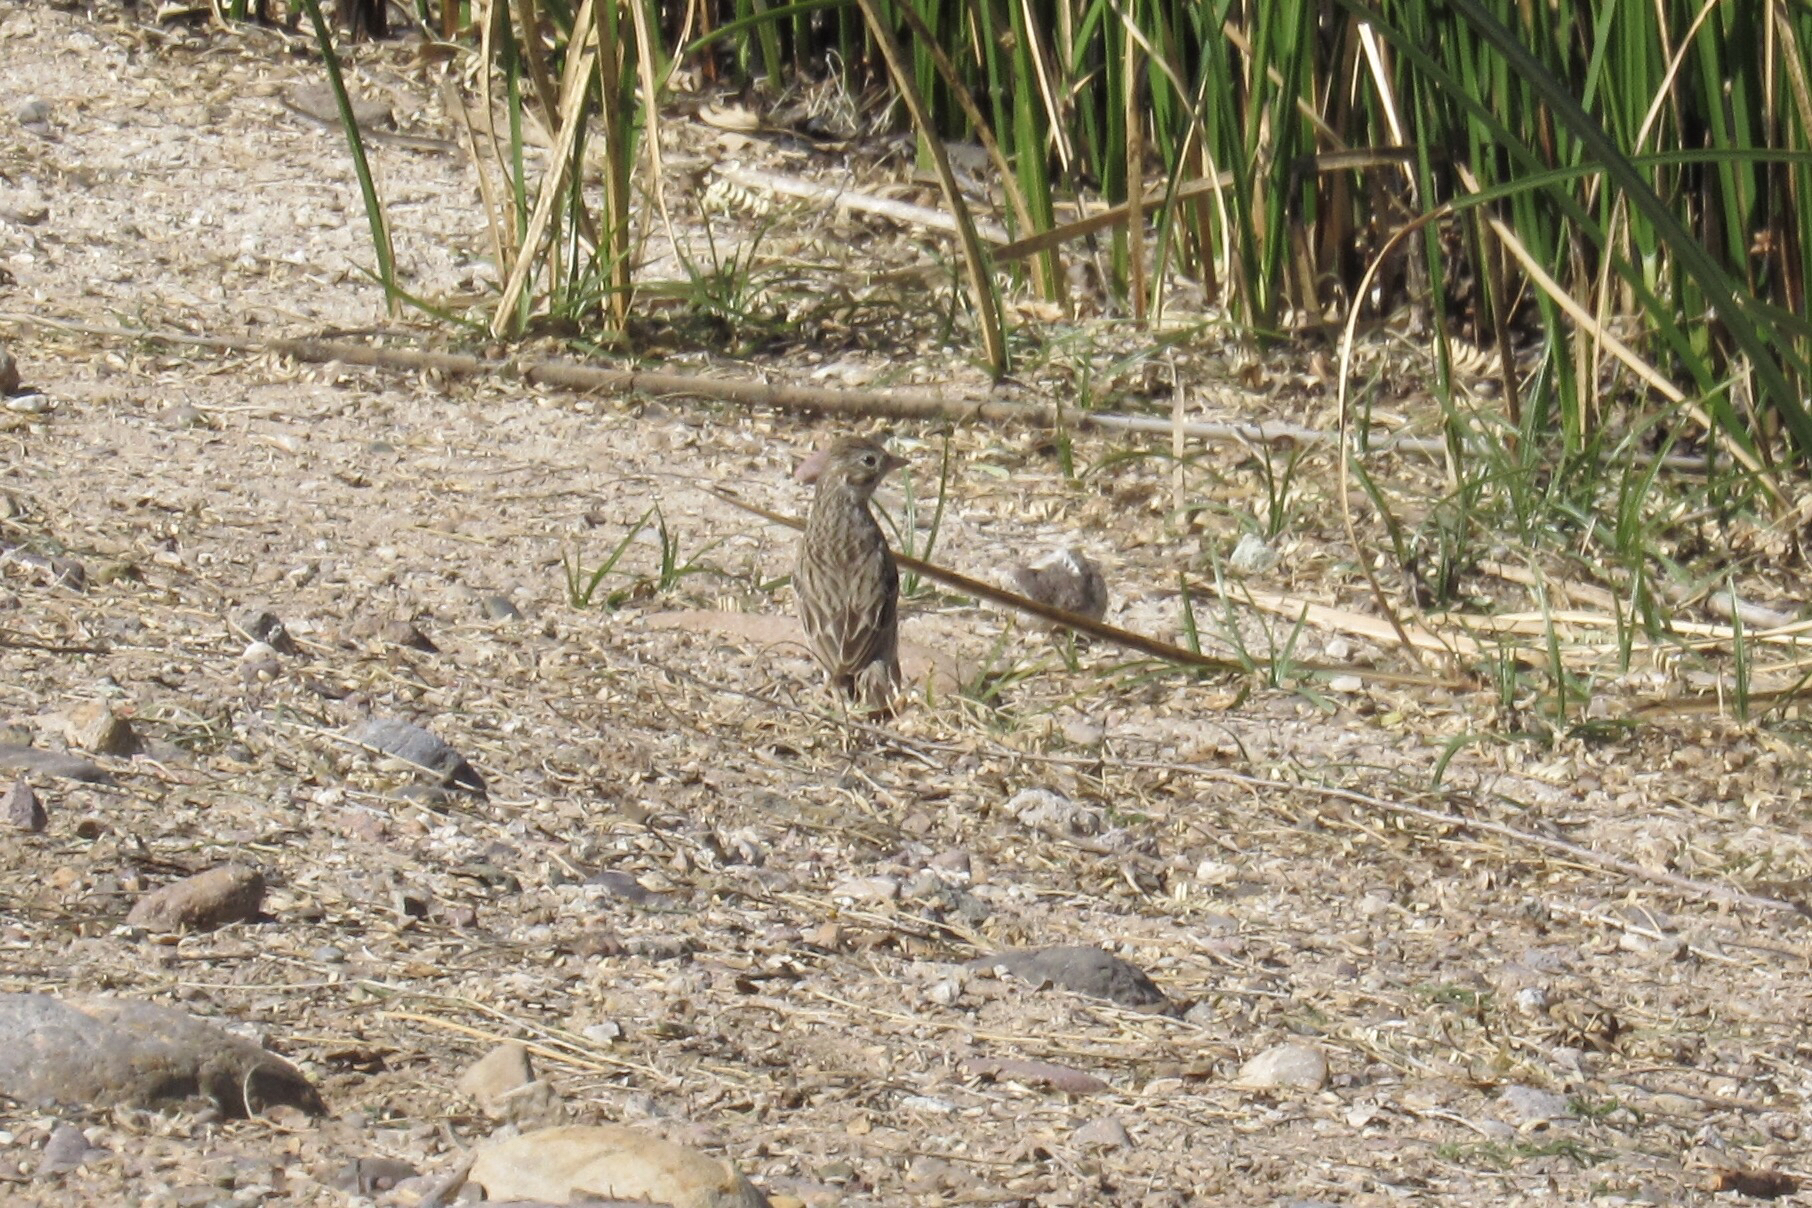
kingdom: Animalia
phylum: Chordata
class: Aves
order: Passeriformes
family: Passerellidae
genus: Pooecetes
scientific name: Pooecetes gramineus
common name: Vesper sparrow
